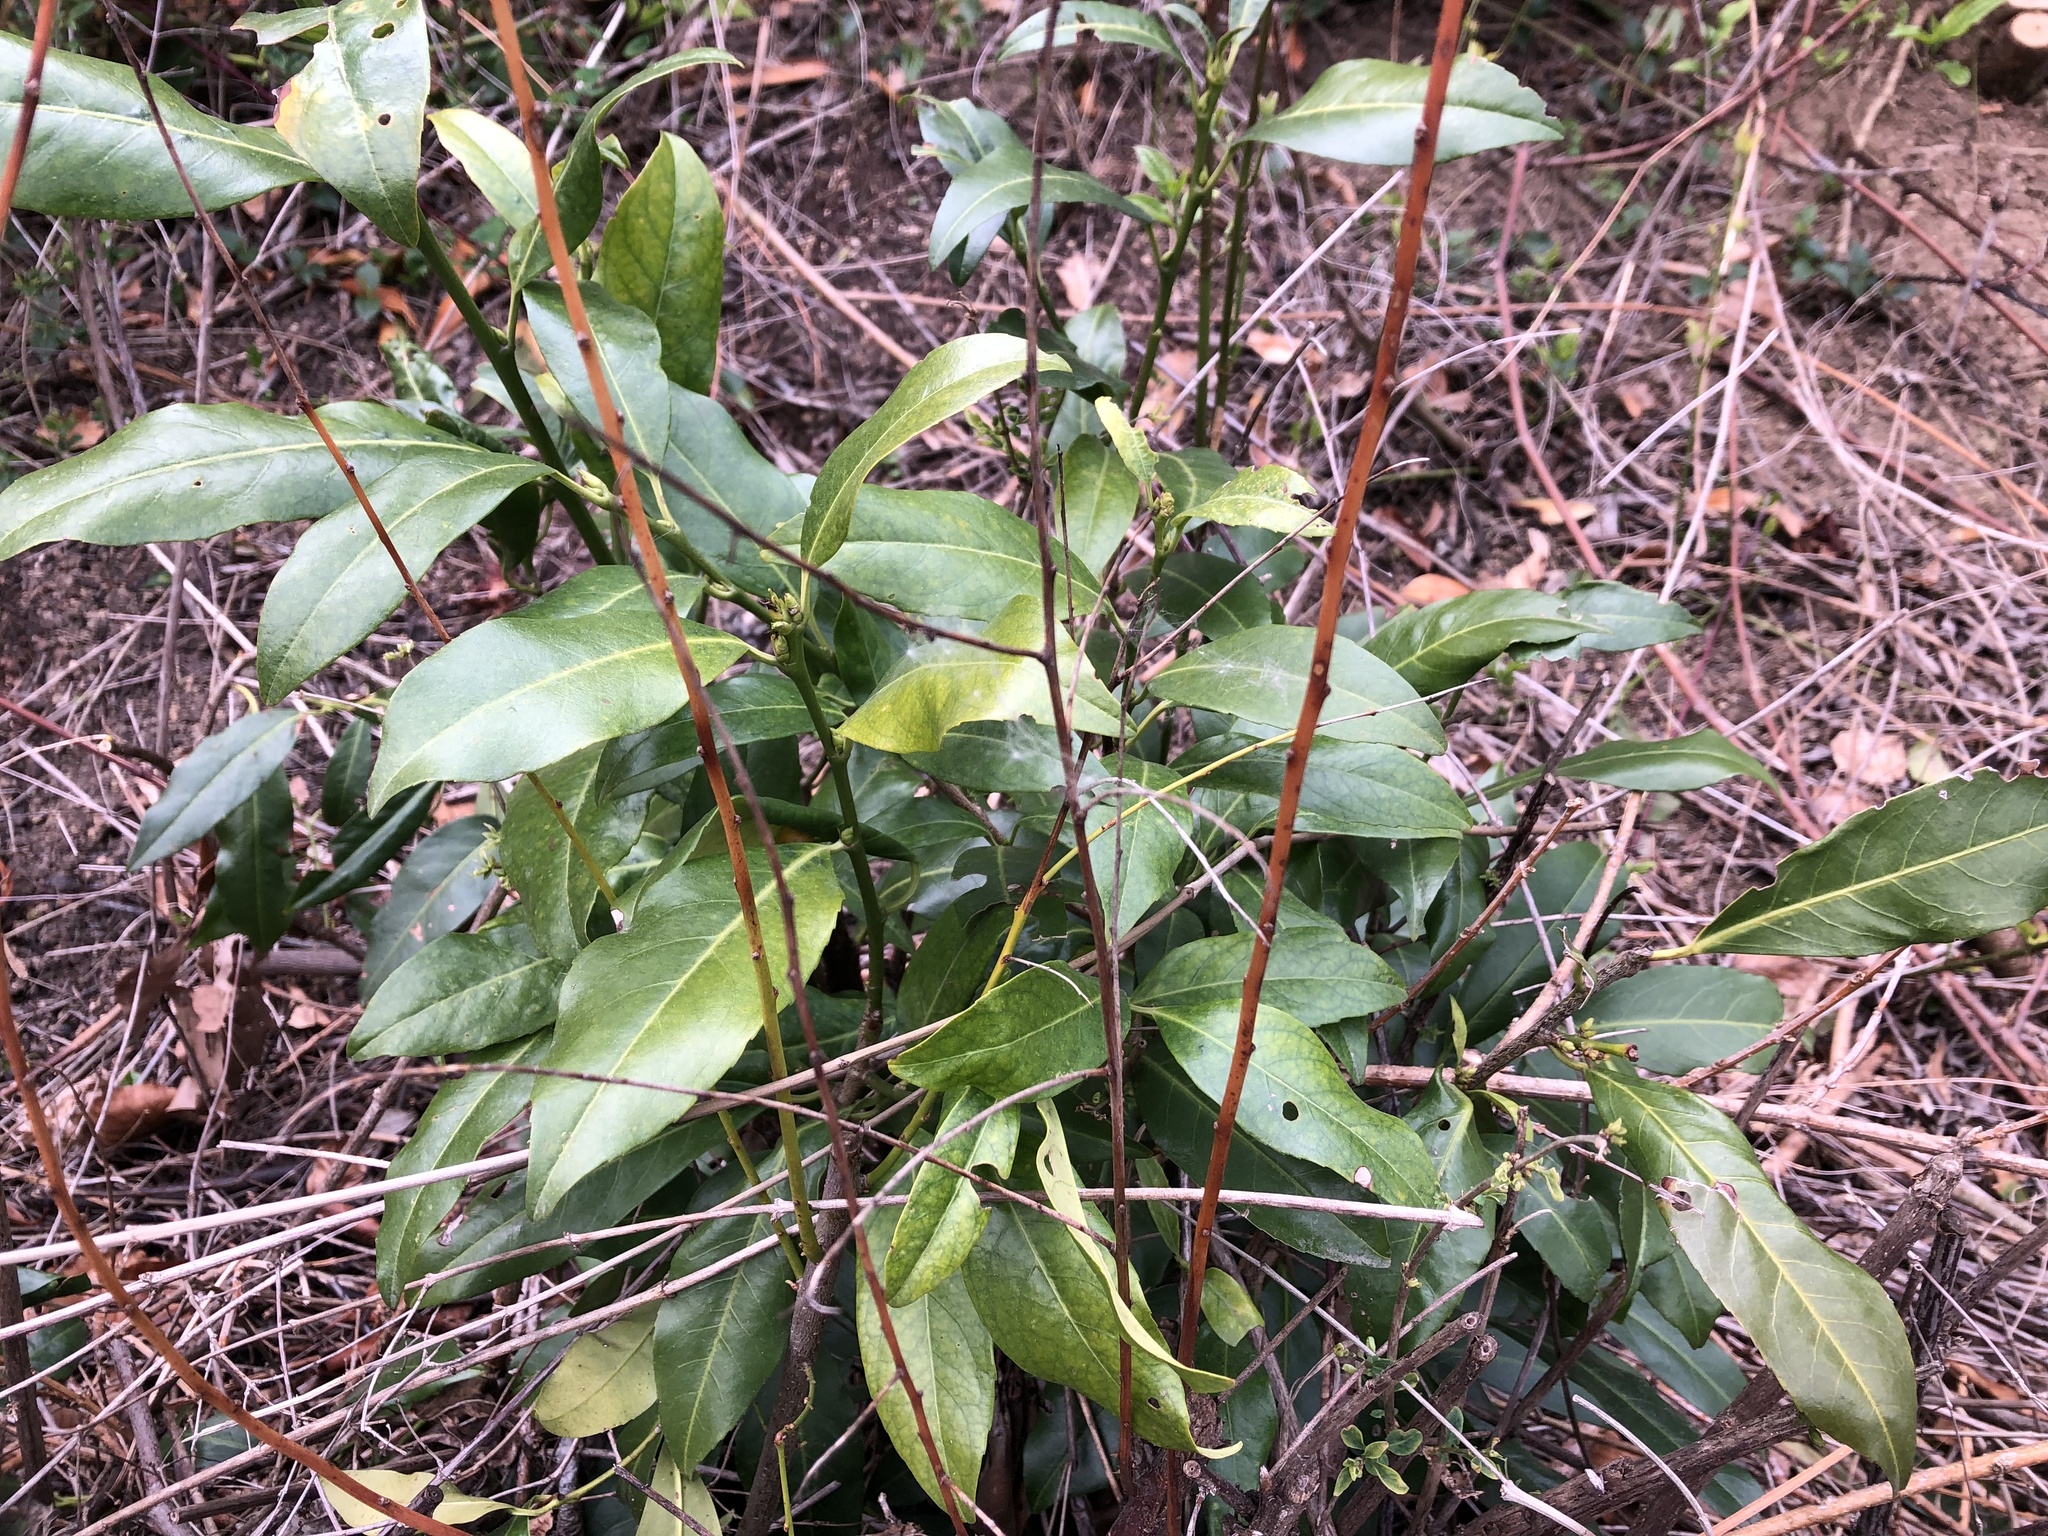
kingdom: Plantae
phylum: Tracheophyta
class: Magnoliopsida
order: Rosales
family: Rosaceae
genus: Prunus
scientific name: Prunus laurocerasus
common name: Cherry laurel
